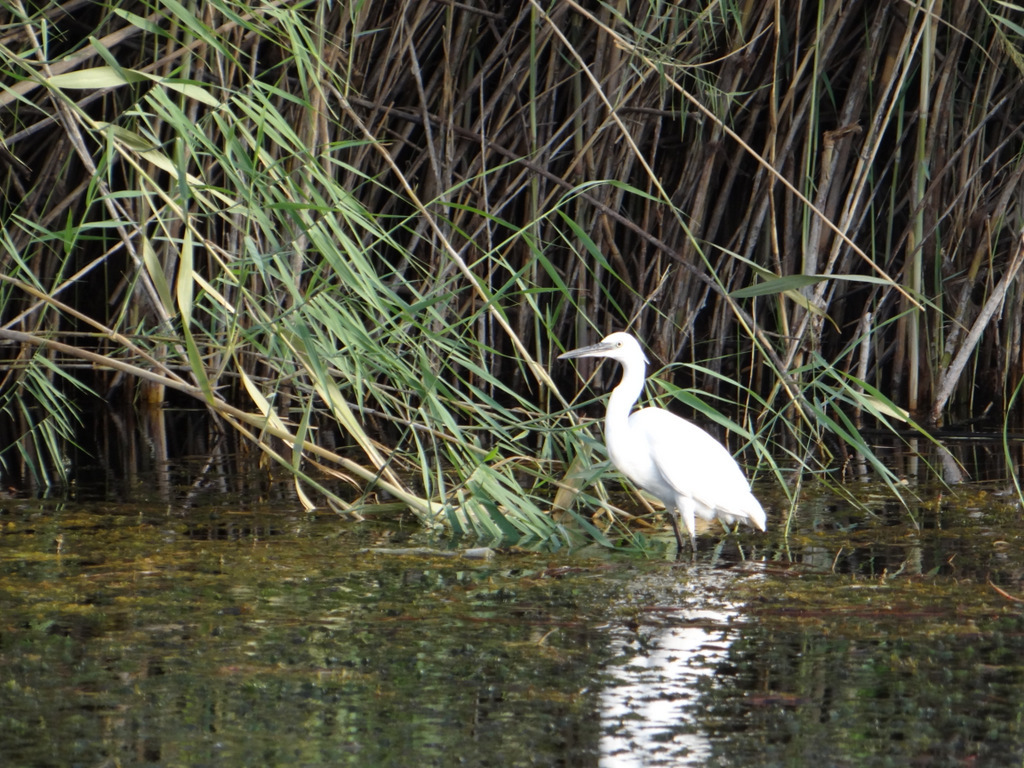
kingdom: Animalia
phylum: Chordata
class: Aves
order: Pelecaniformes
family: Ardeidae
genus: Egretta
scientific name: Egretta garzetta
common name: Little egret
